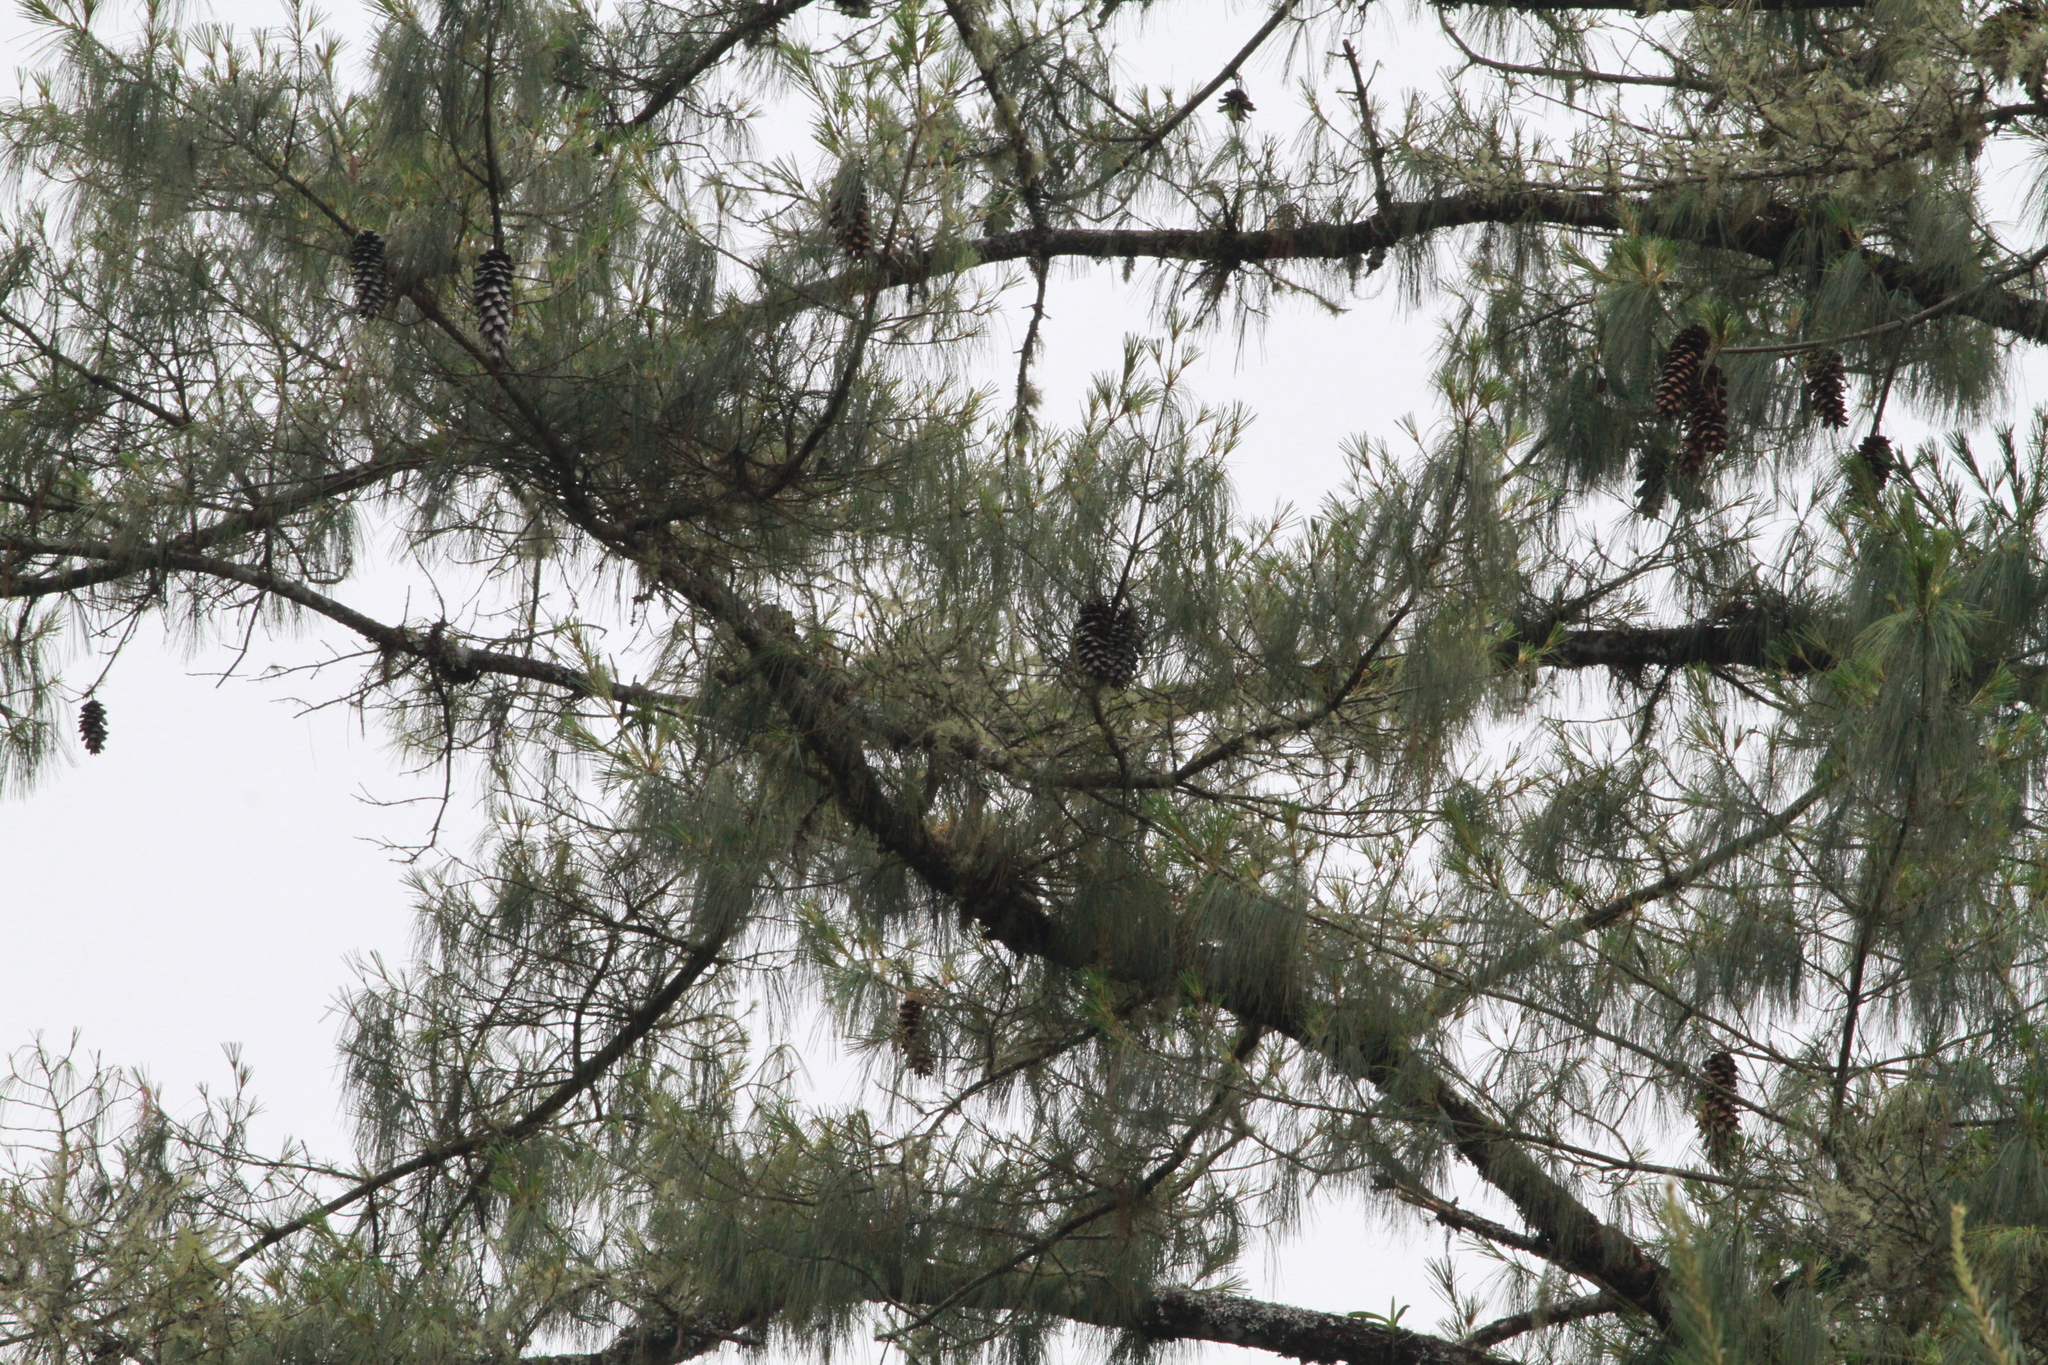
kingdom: Plantae
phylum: Tracheophyta
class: Pinopsida
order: Pinales
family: Pinaceae
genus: Pinus
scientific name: Pinus ayacahuite
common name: Mexican white pine
